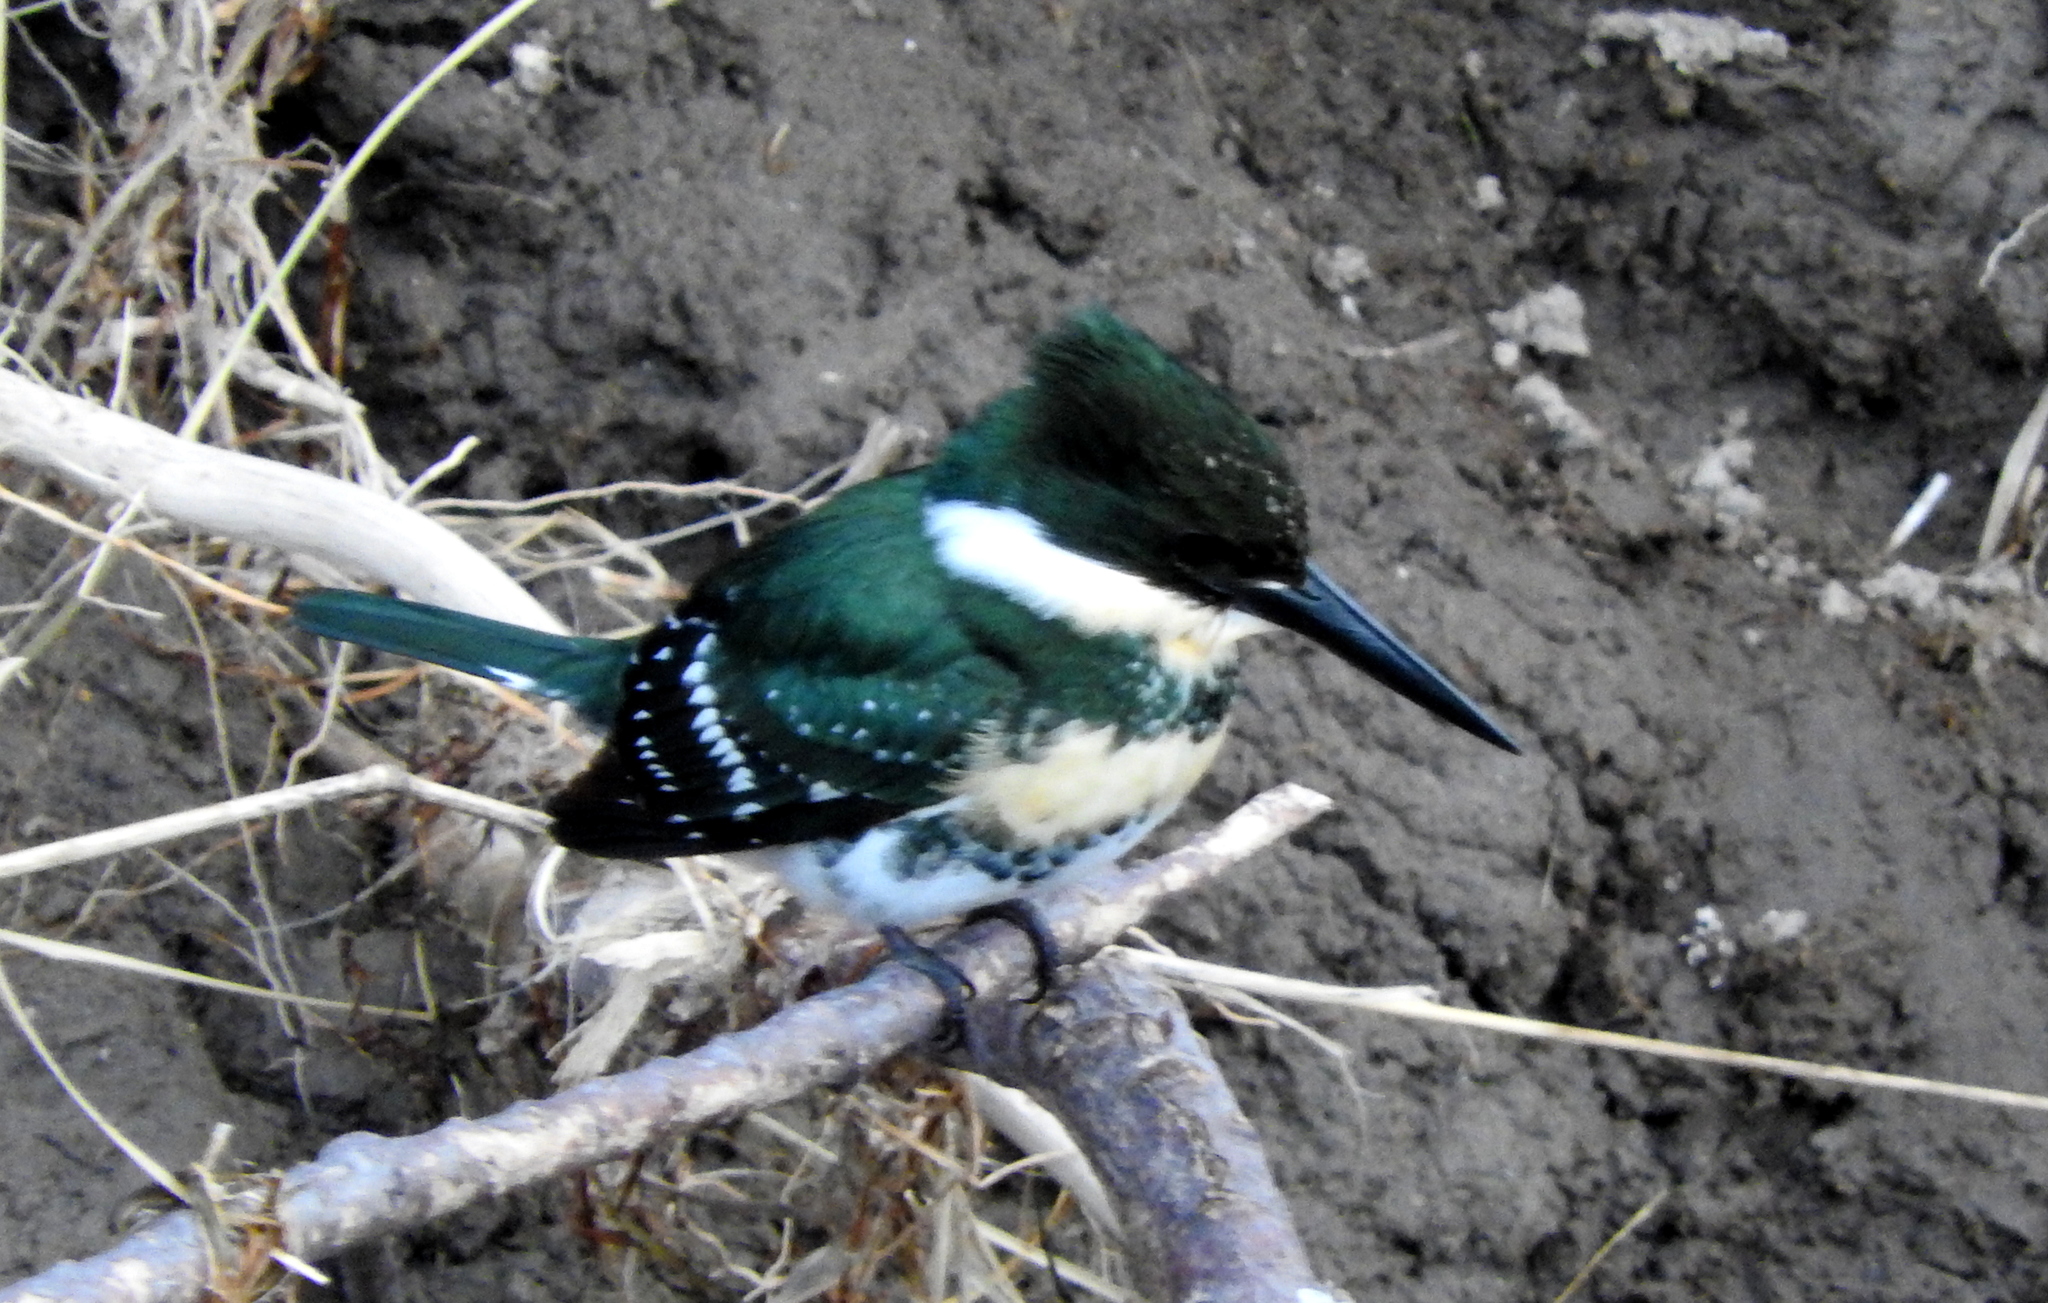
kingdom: Animalia
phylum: Chordata
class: Aves
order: Coraciiformes
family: Alcedinidae
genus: Chloroceryle
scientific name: Chloroceryle americana
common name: Green kingfisher
